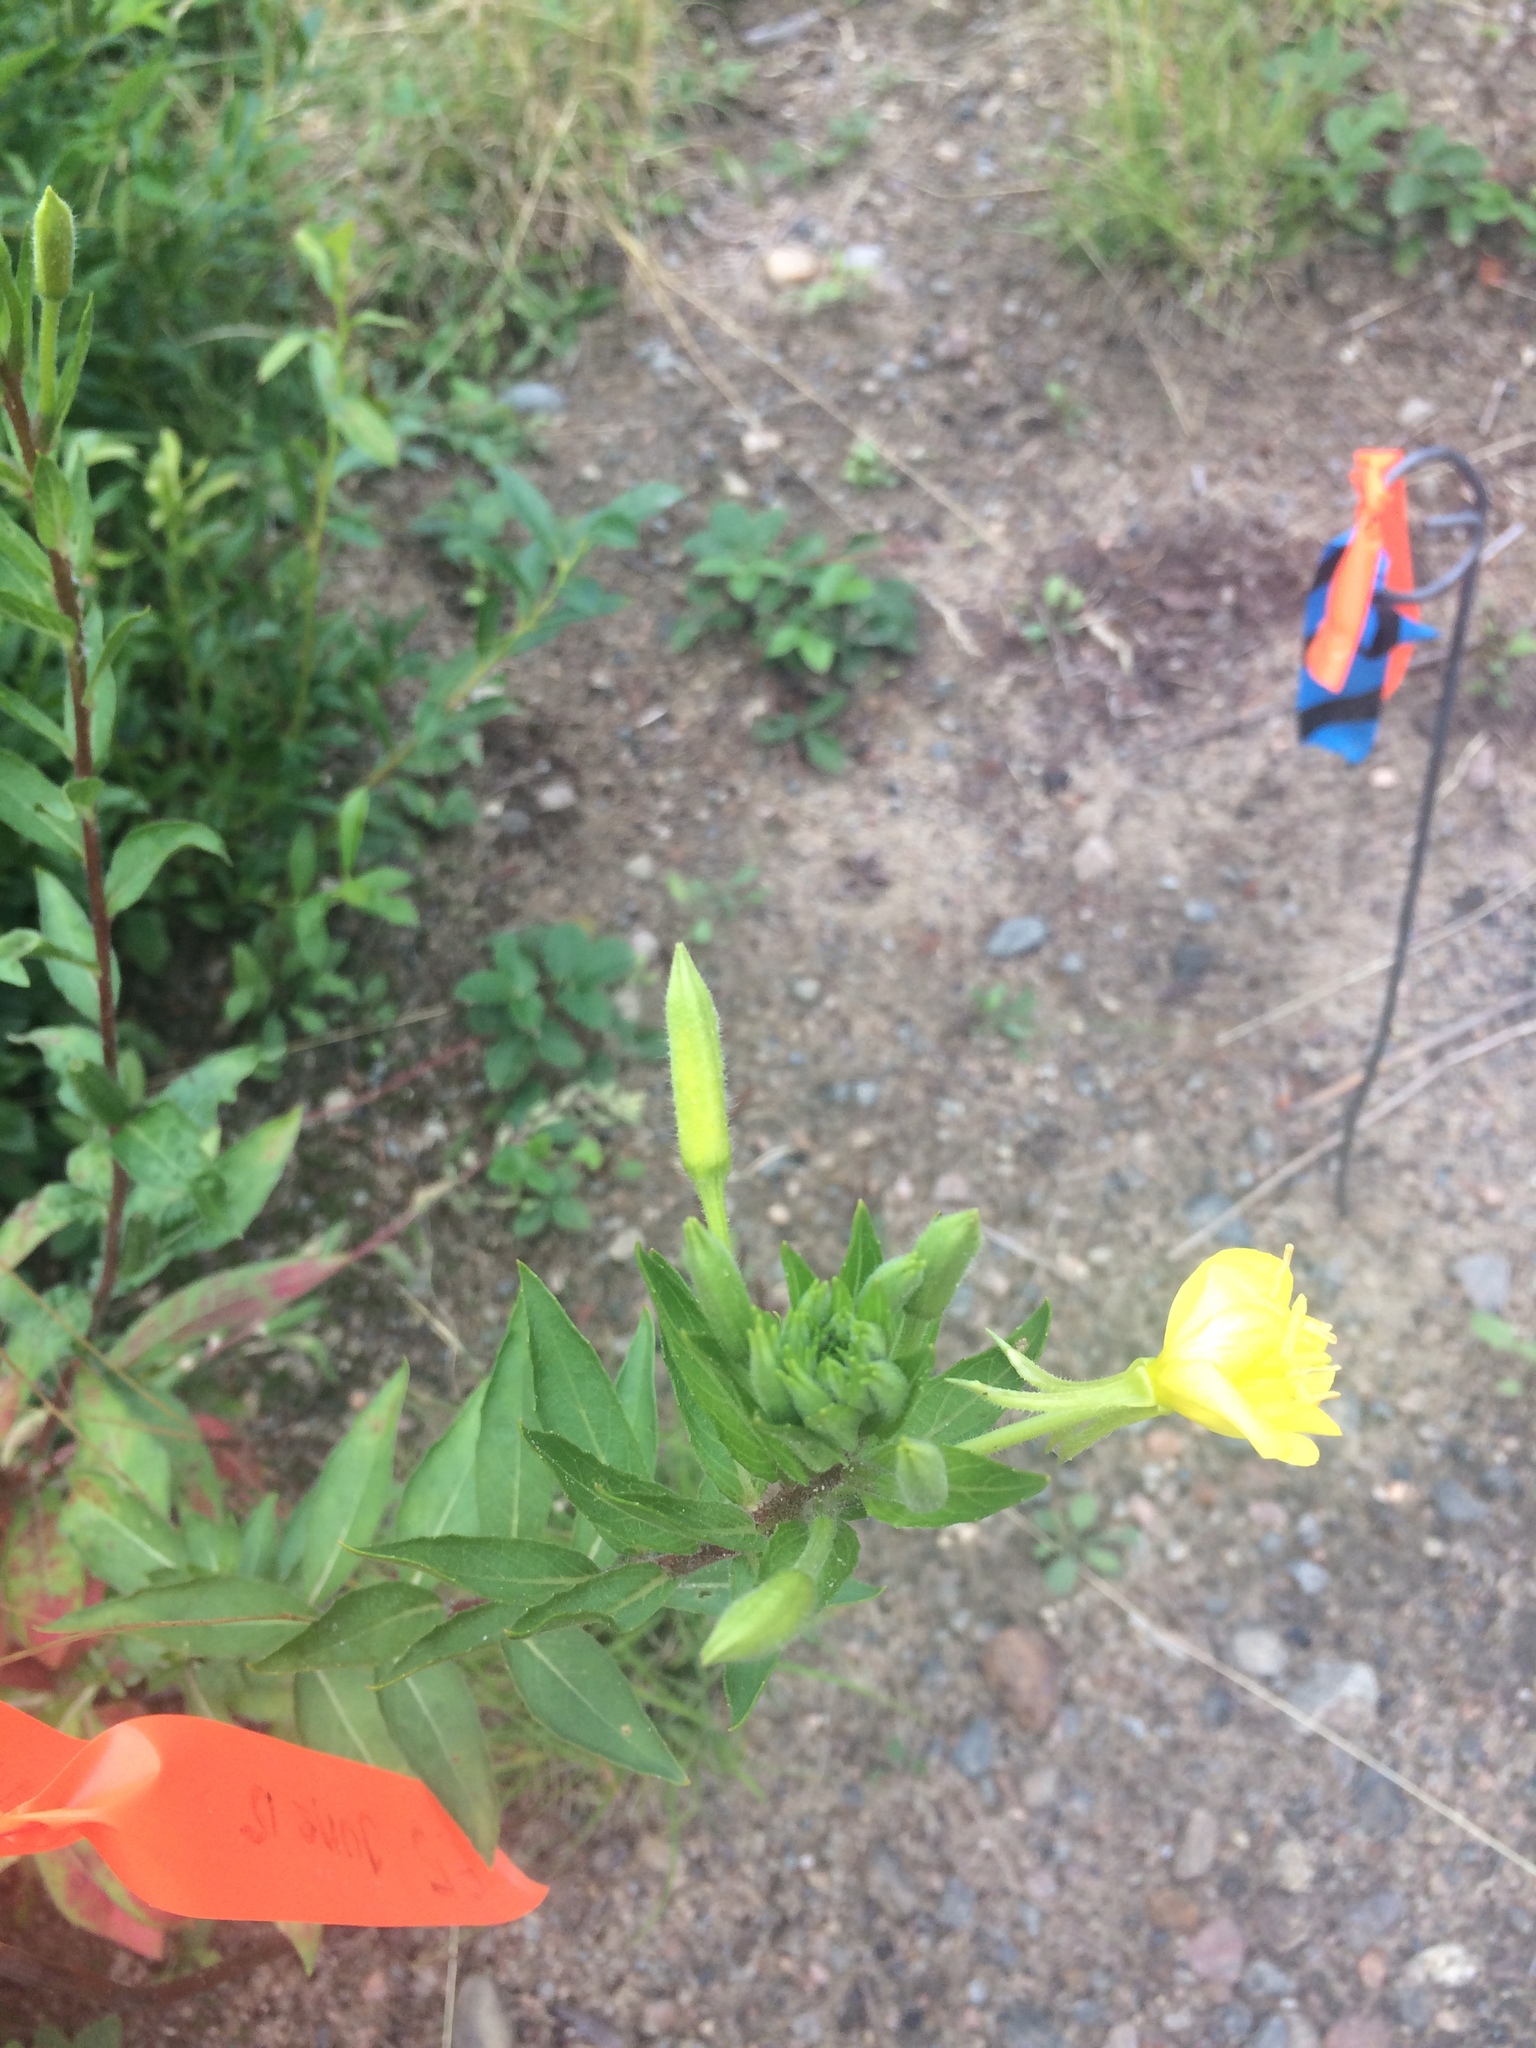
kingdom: Plantae
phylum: Tracheophyta
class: Magnoliopsida
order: Myrtales
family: Onagraceae
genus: Oenothera
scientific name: Oenothera parviflora
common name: Least evening-primrose
